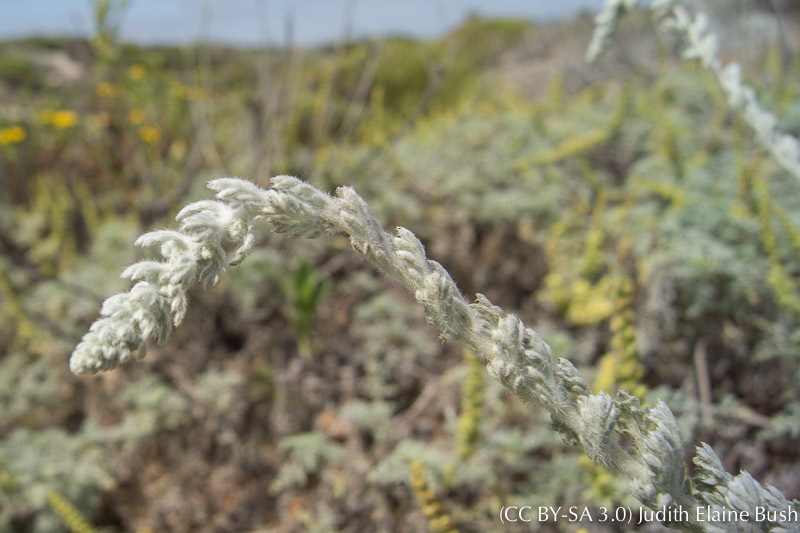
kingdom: Plantae
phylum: Tracheophyta
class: Magnoliopsida
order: Asterales
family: Asteraceae
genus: Artemisia
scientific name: Artemisia pycnocephala
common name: Coastal sagewort
